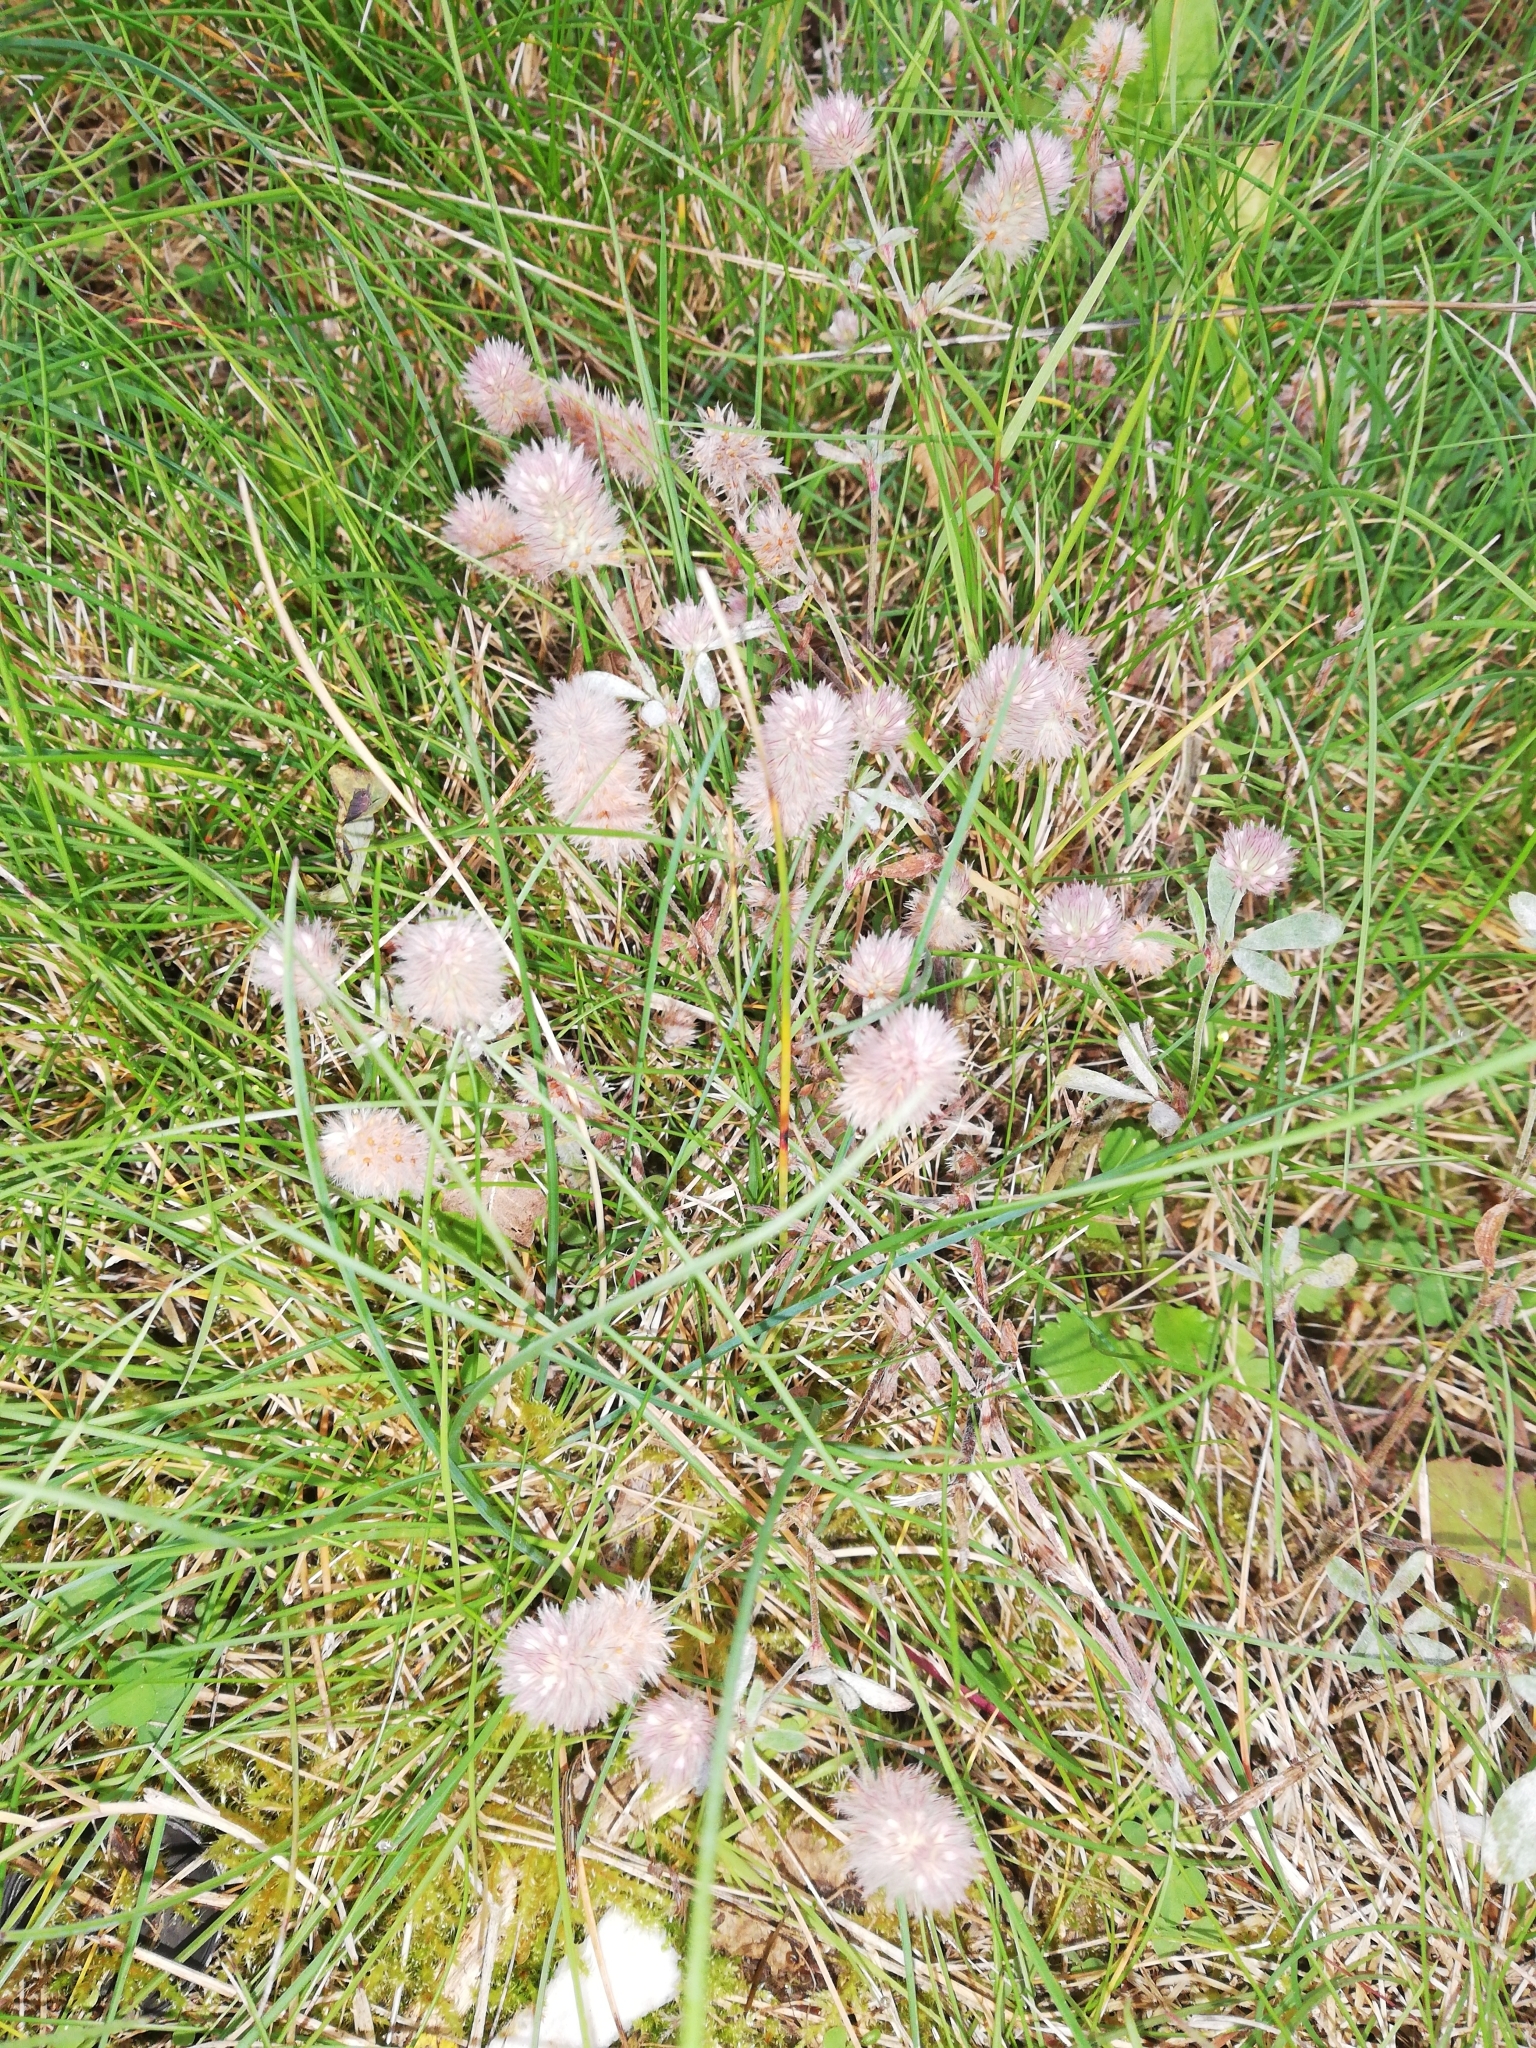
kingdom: Plantae
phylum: Tracheophyta
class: Magnoliopsida
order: Fabales
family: Fabaceae
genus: Trifolium
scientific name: Trifolium arvense
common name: Hare's-foot clover
